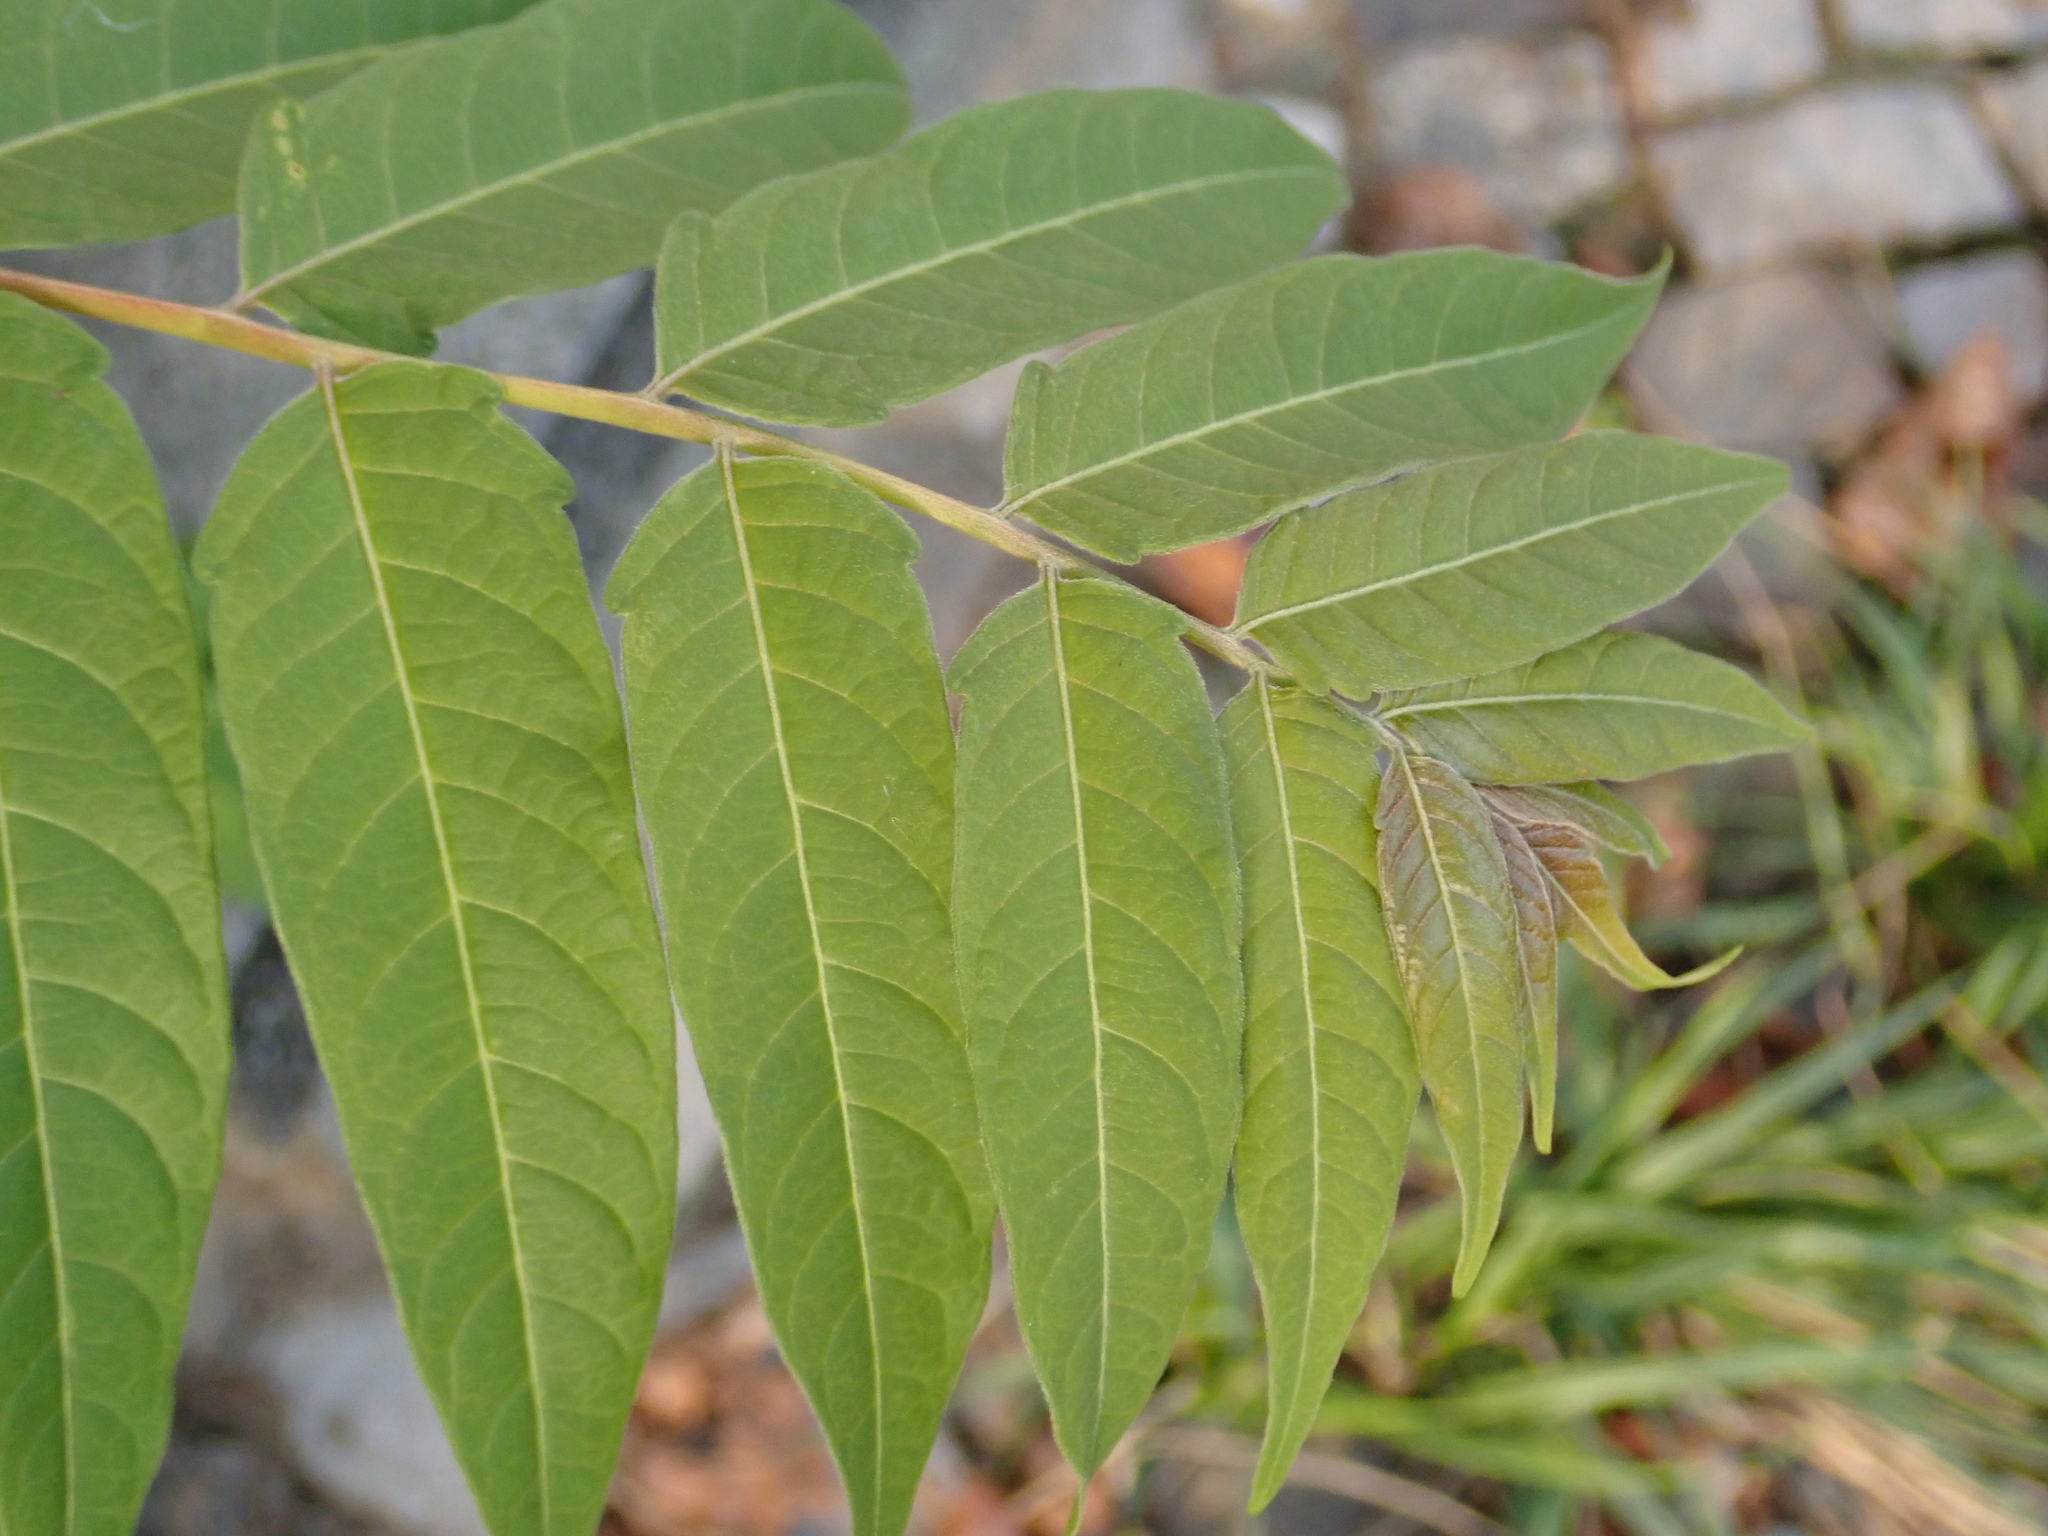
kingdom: Plantae
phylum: Tracheophyta
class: Magnoliopsida
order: Sapindales
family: Simaroubaceae
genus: Ailanthus
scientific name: Ailanthus altissima
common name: Tree-of-heaven
